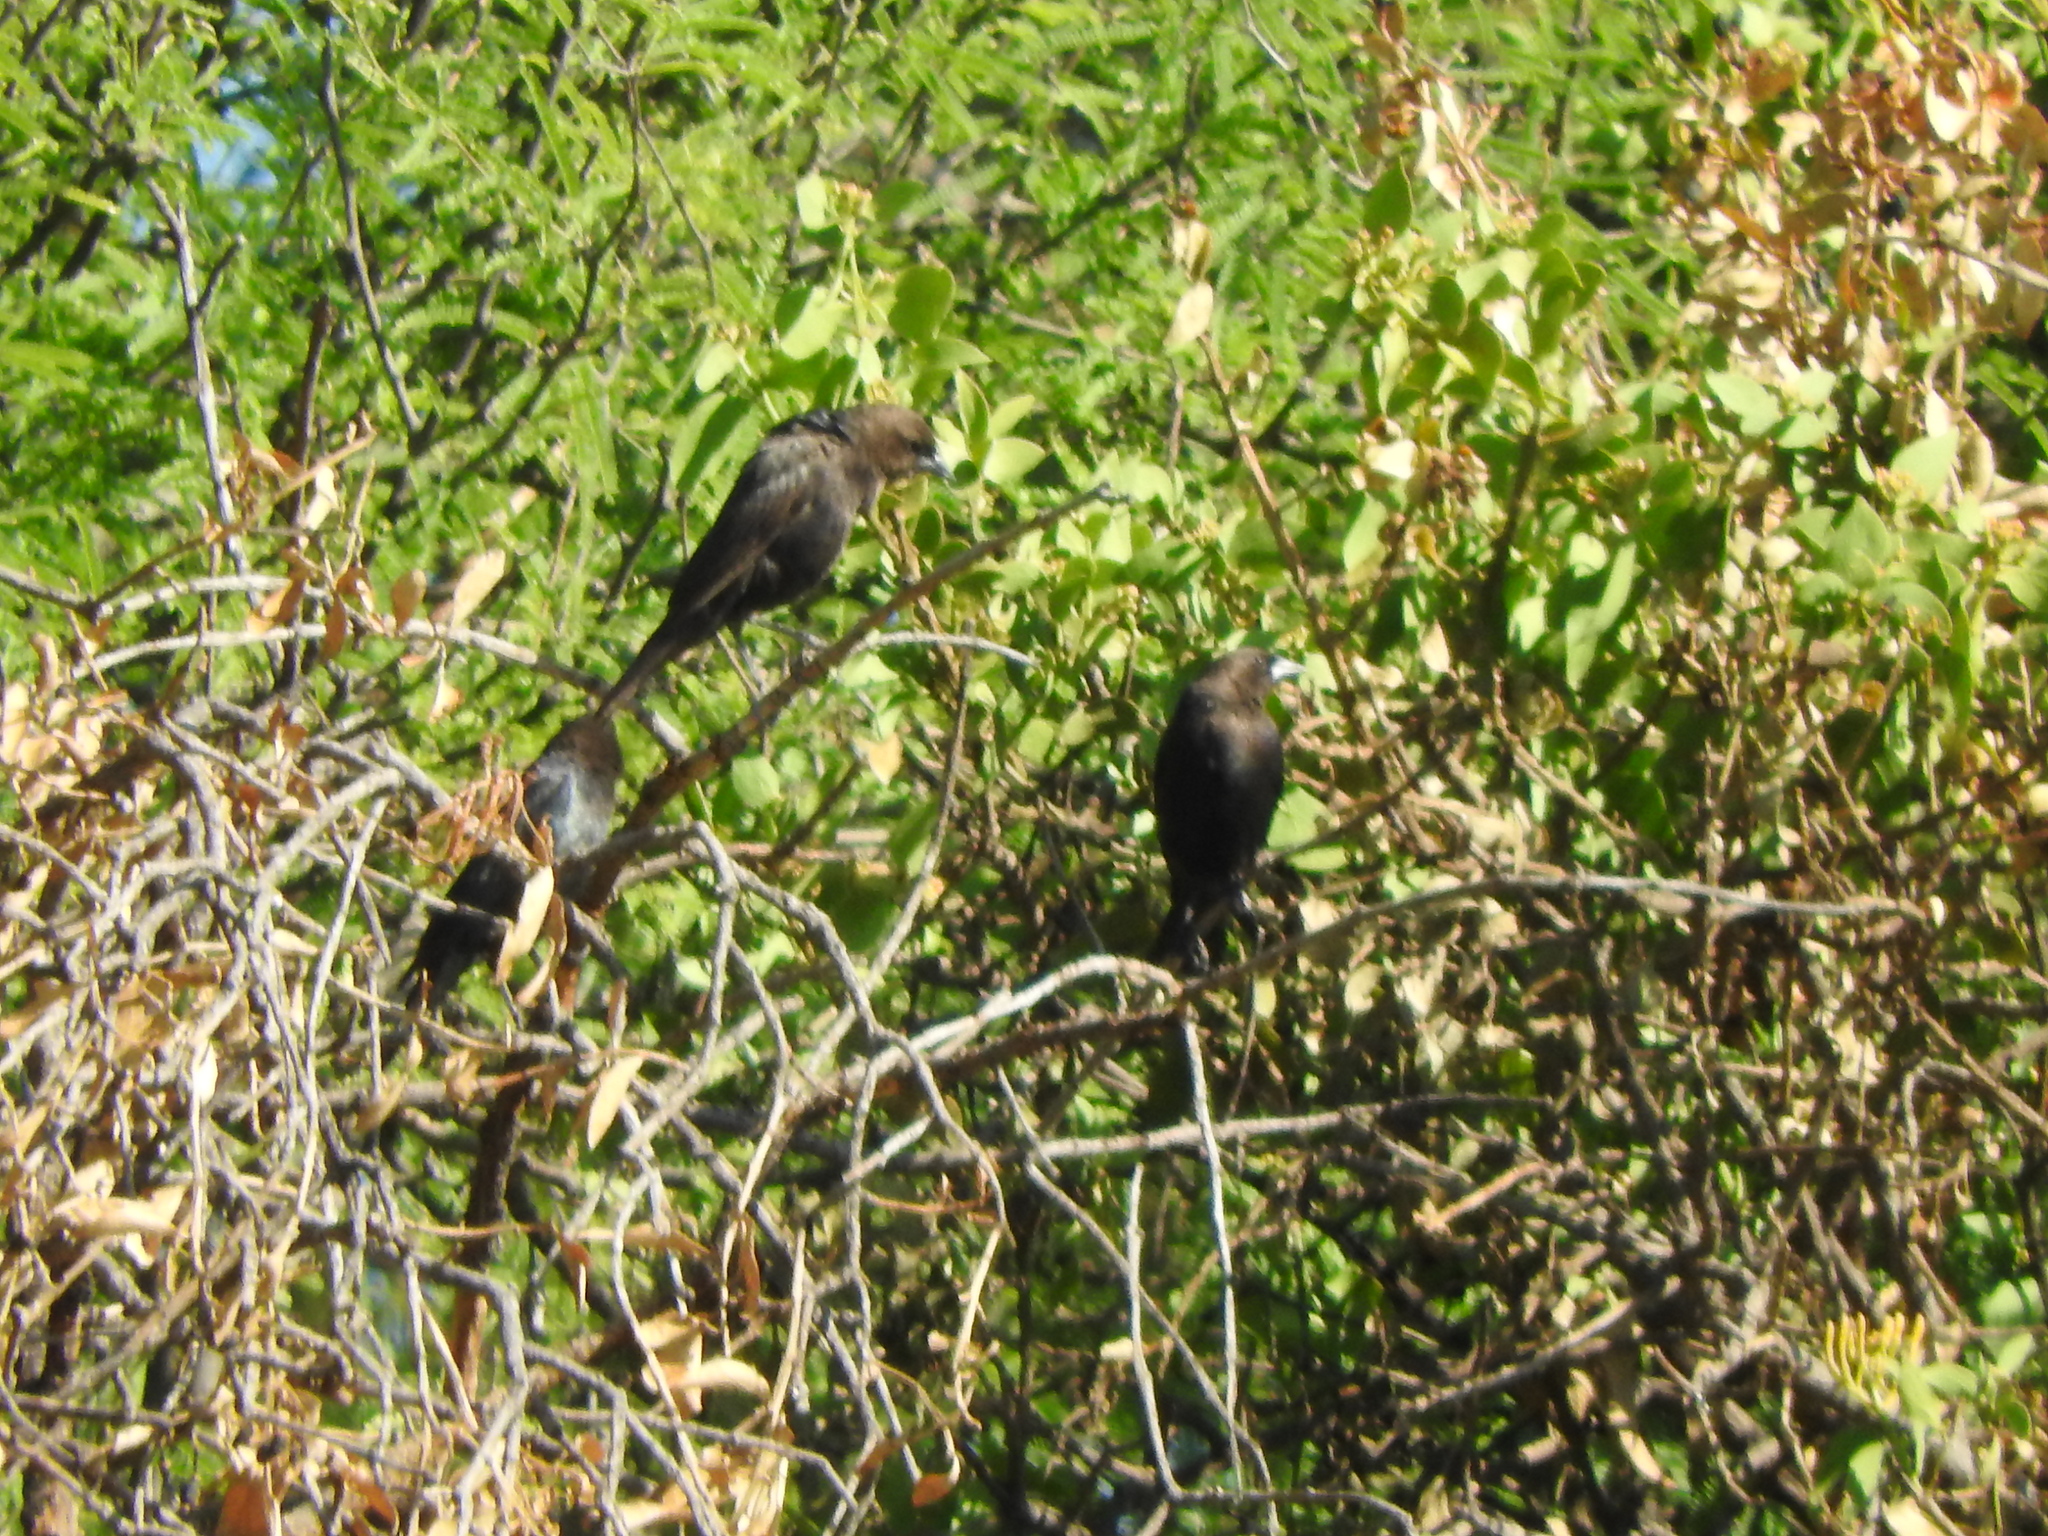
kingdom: Animalia
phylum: Chordata
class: Aves
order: Passeriformes
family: Icteridae
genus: Molothrus
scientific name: Molothrus ater
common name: Brown-headed cowbird
